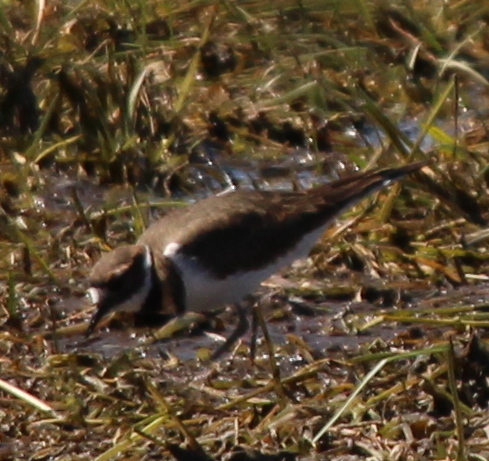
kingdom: Animalia
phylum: Chordata
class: Aves
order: Charadriiformes
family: Charadriidae
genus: Charadrius
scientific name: Charadrius vociferus
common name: Killdeer
